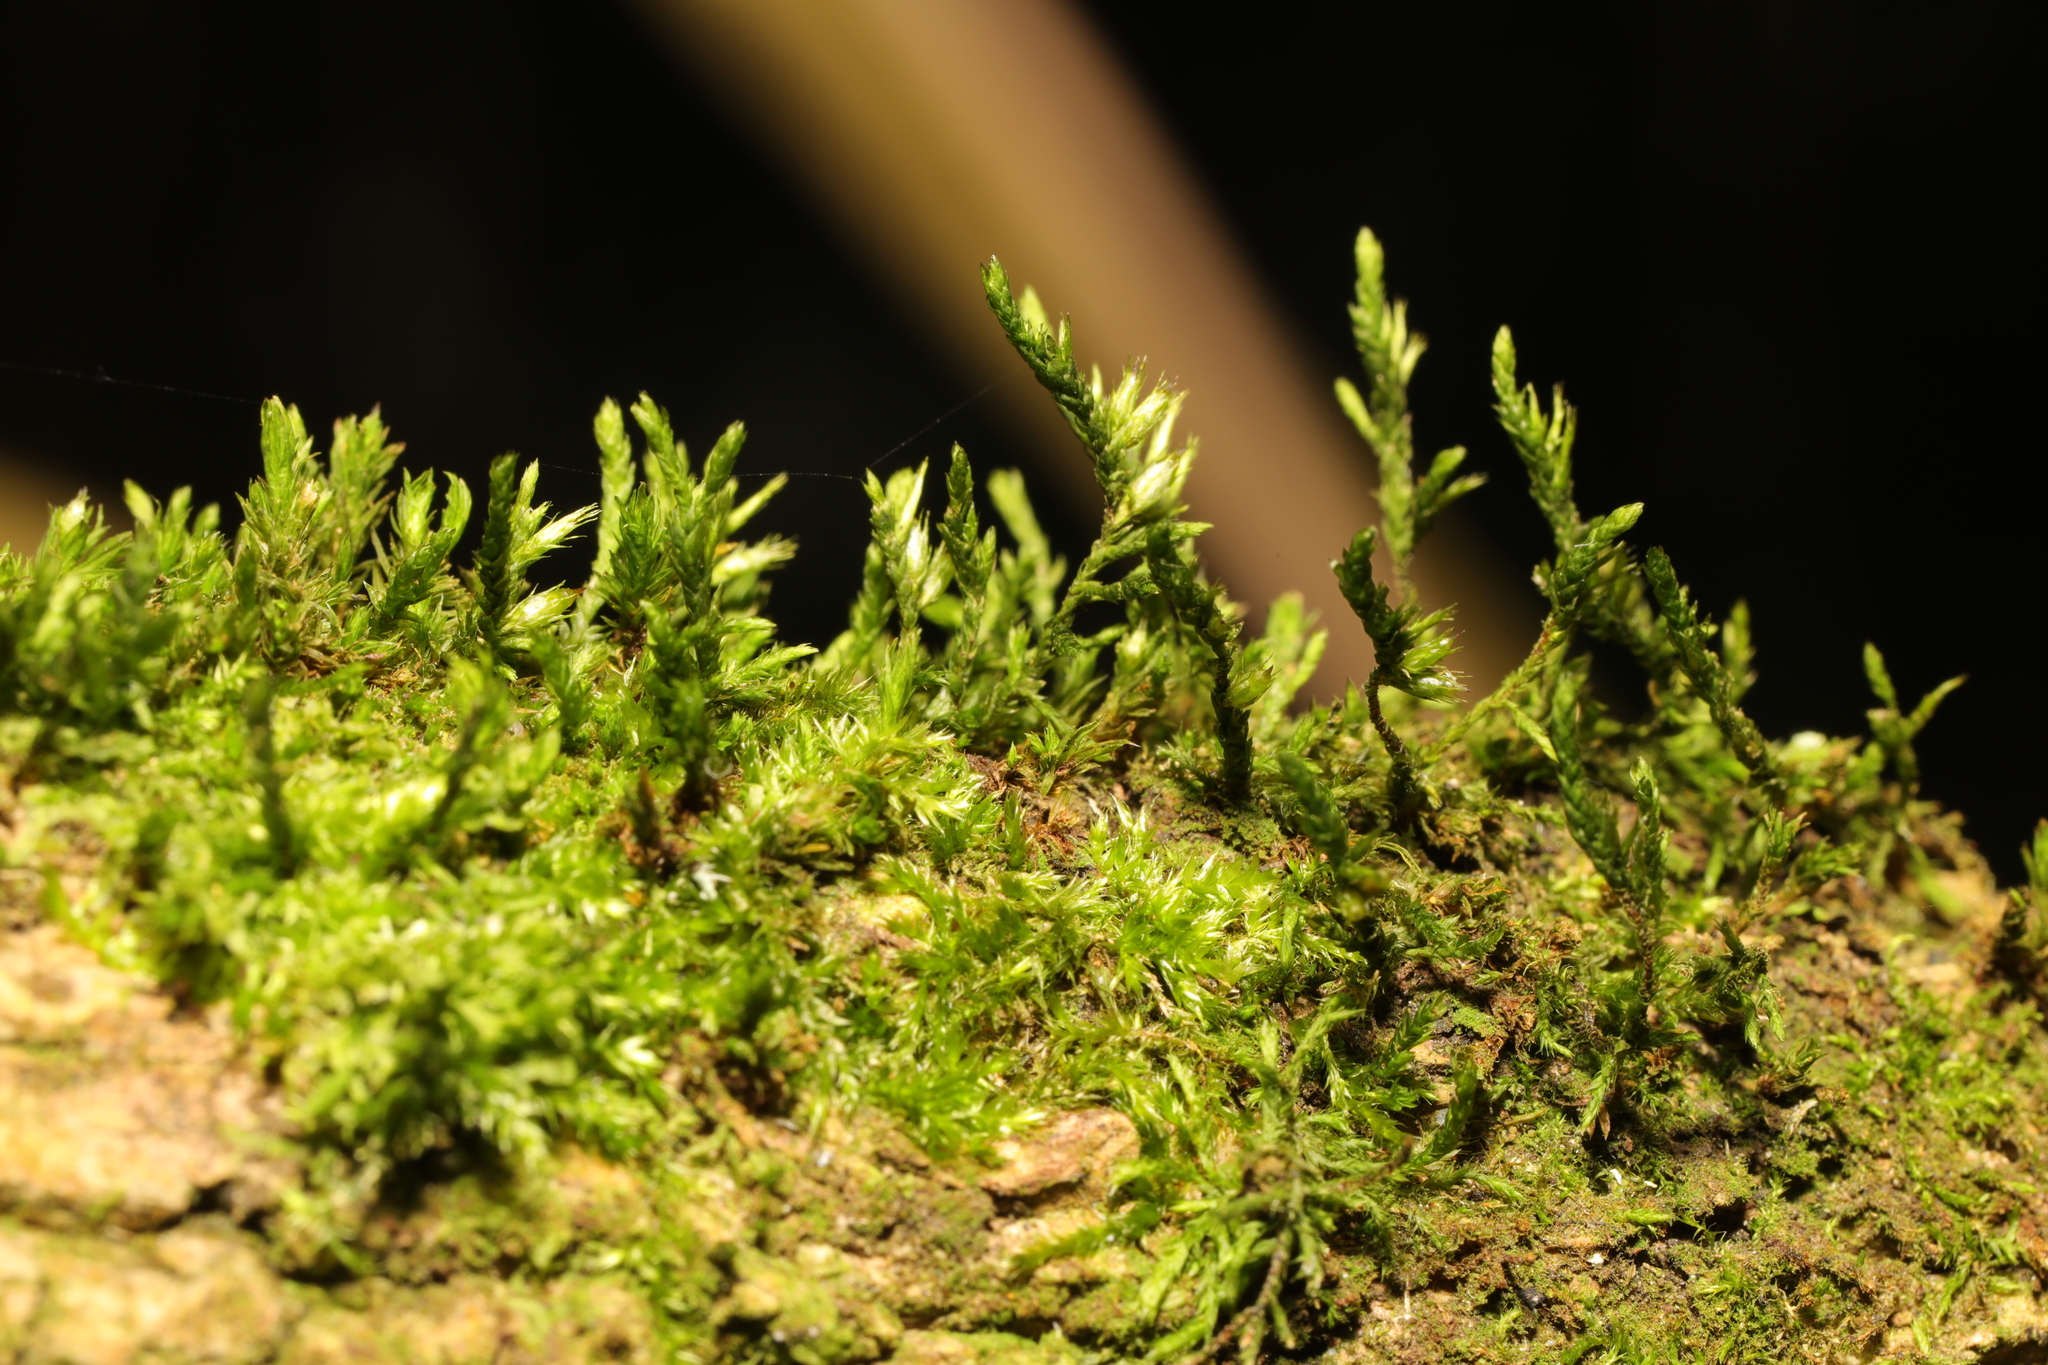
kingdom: Plantae
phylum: Bryophyta
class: Bryopsida
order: Hypnales
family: Cryphaeaceae
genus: Cryphaea
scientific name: Cryphaea heteromalla
